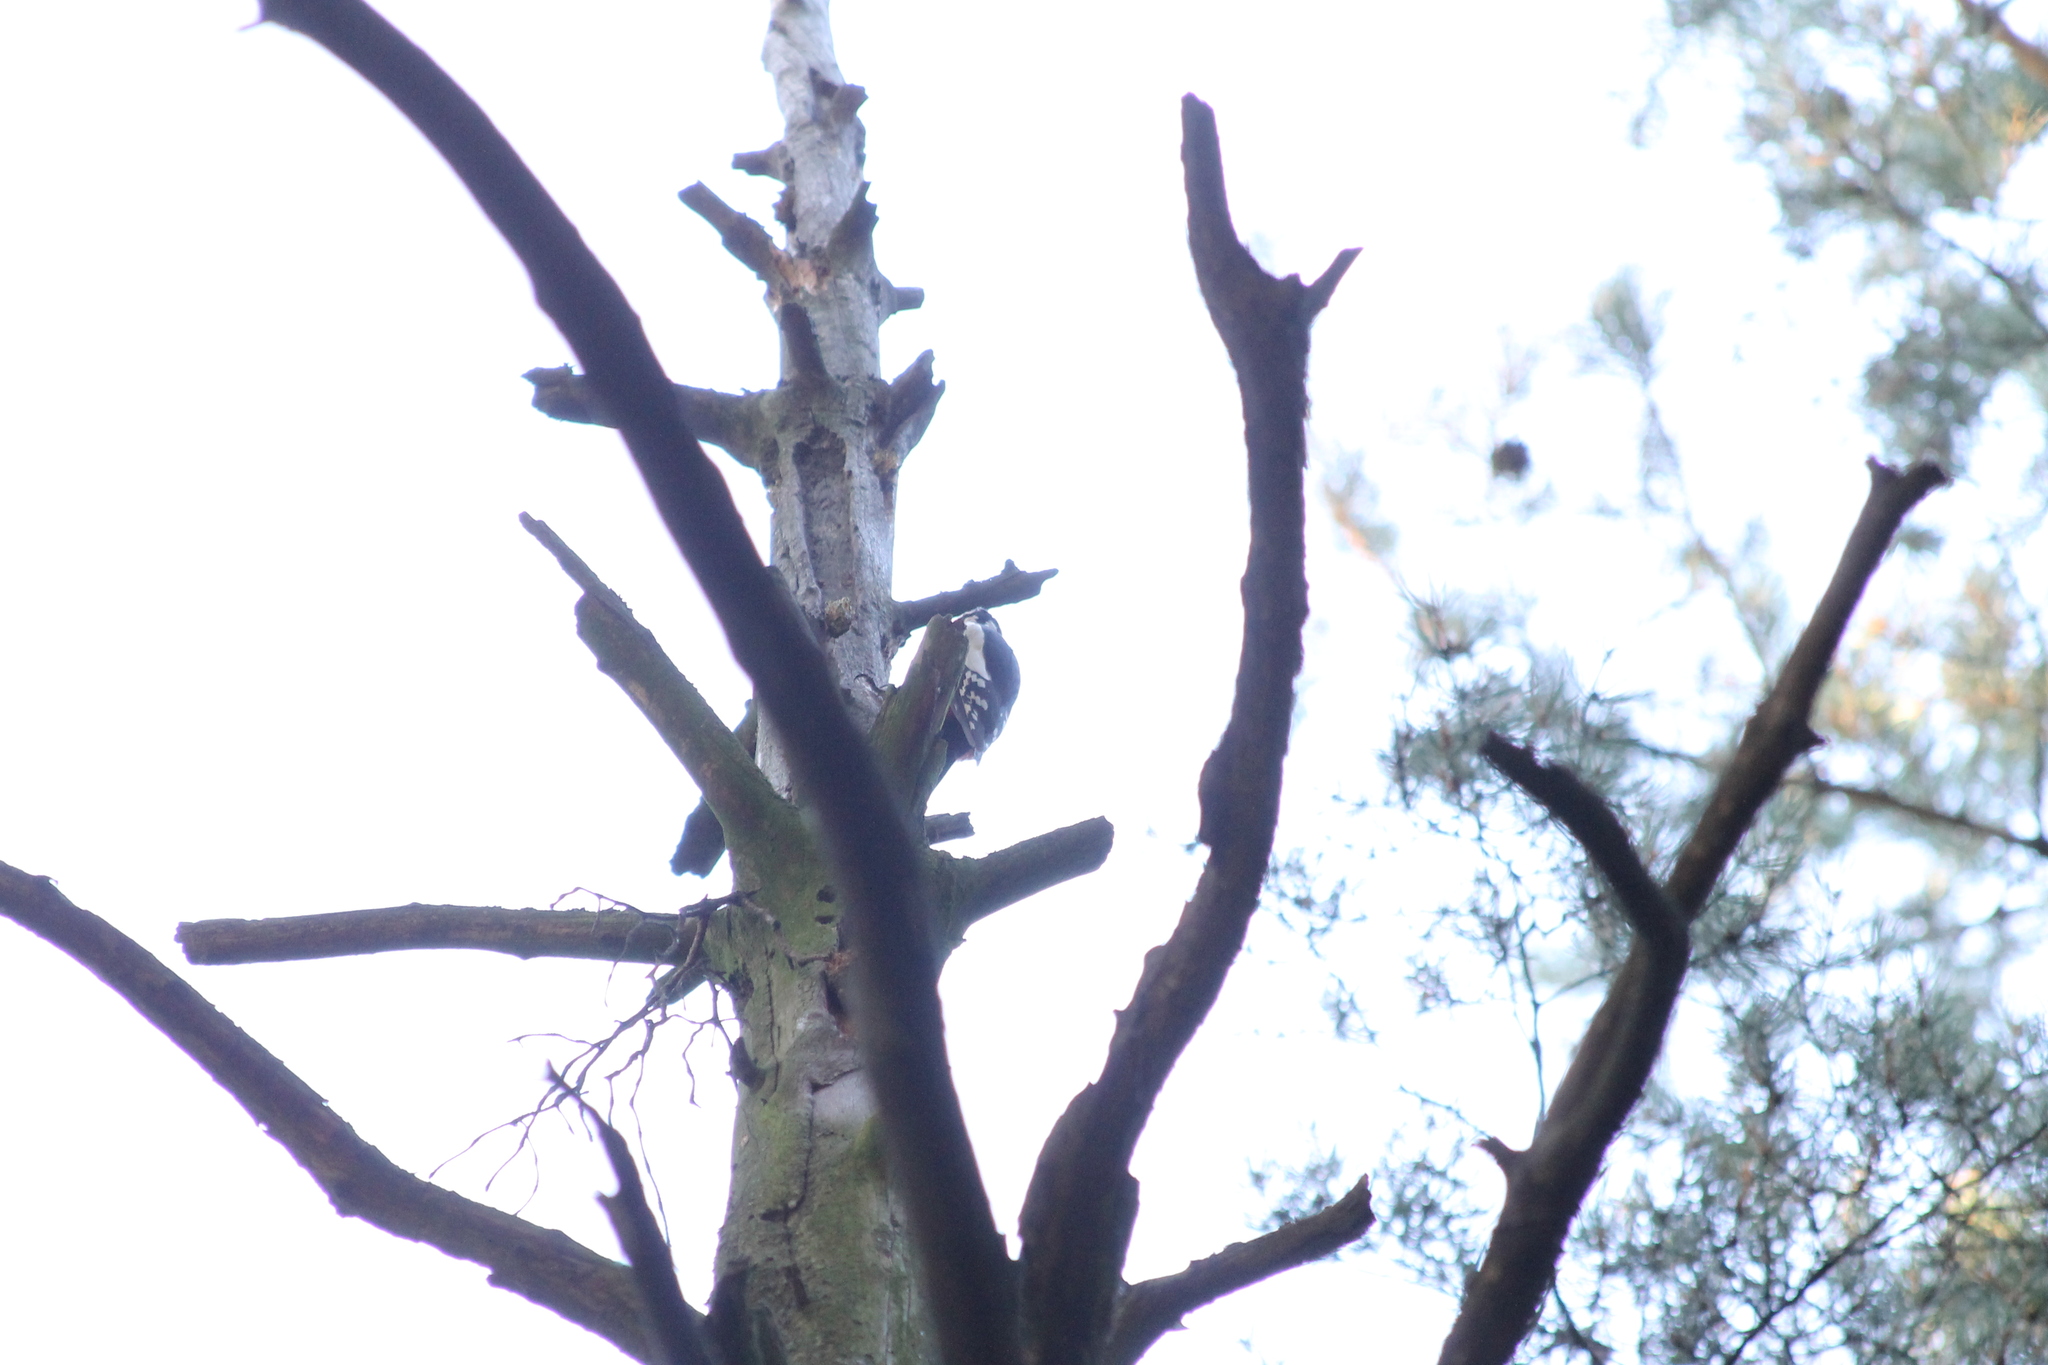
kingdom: Animalia
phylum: Chordata
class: Aves
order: Piciformes
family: Picidae
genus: Dendrocopos
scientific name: Dendrocopos major
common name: Great spotted woodpecker
